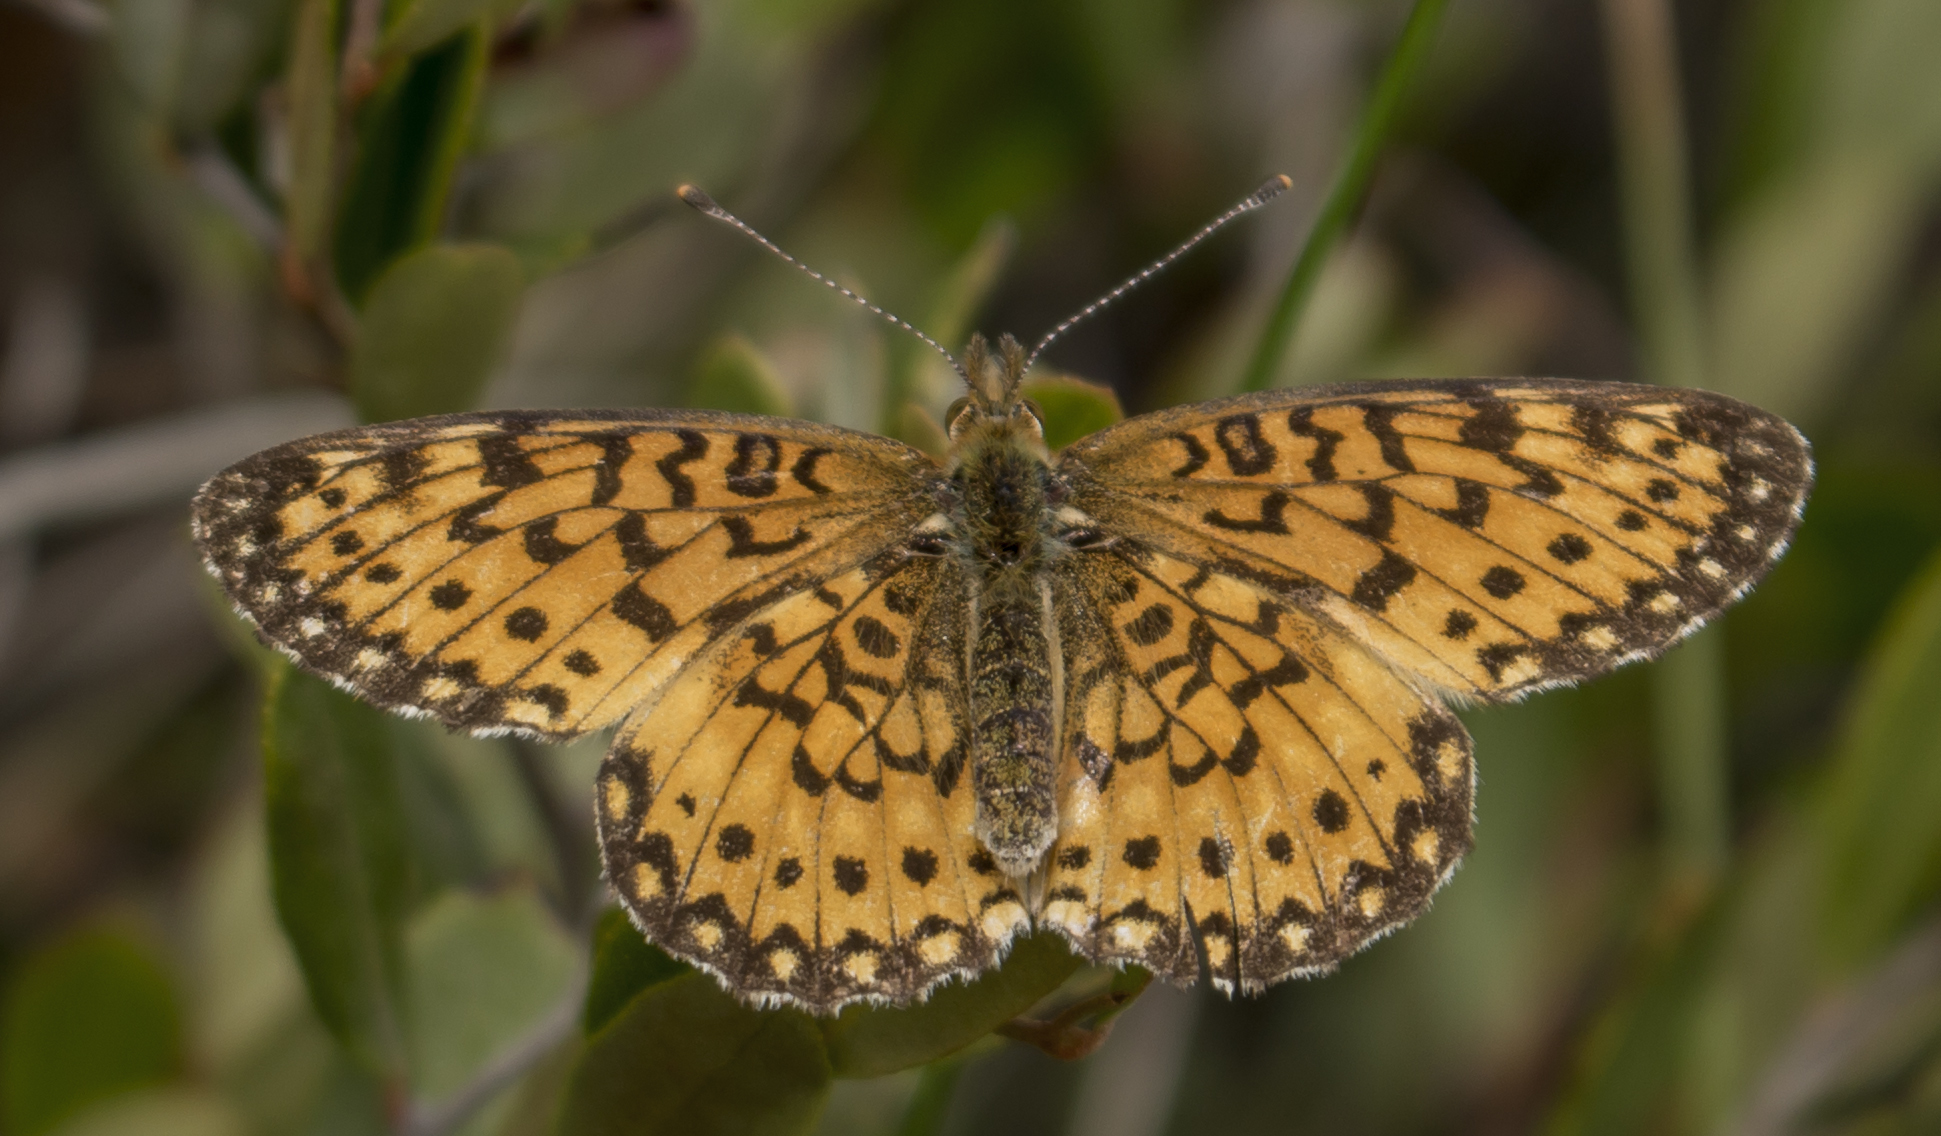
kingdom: Animalia
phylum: Arthropoda
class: Insecta
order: Lepidoptera
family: Nymphalidae
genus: Boloria
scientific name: Boloria
